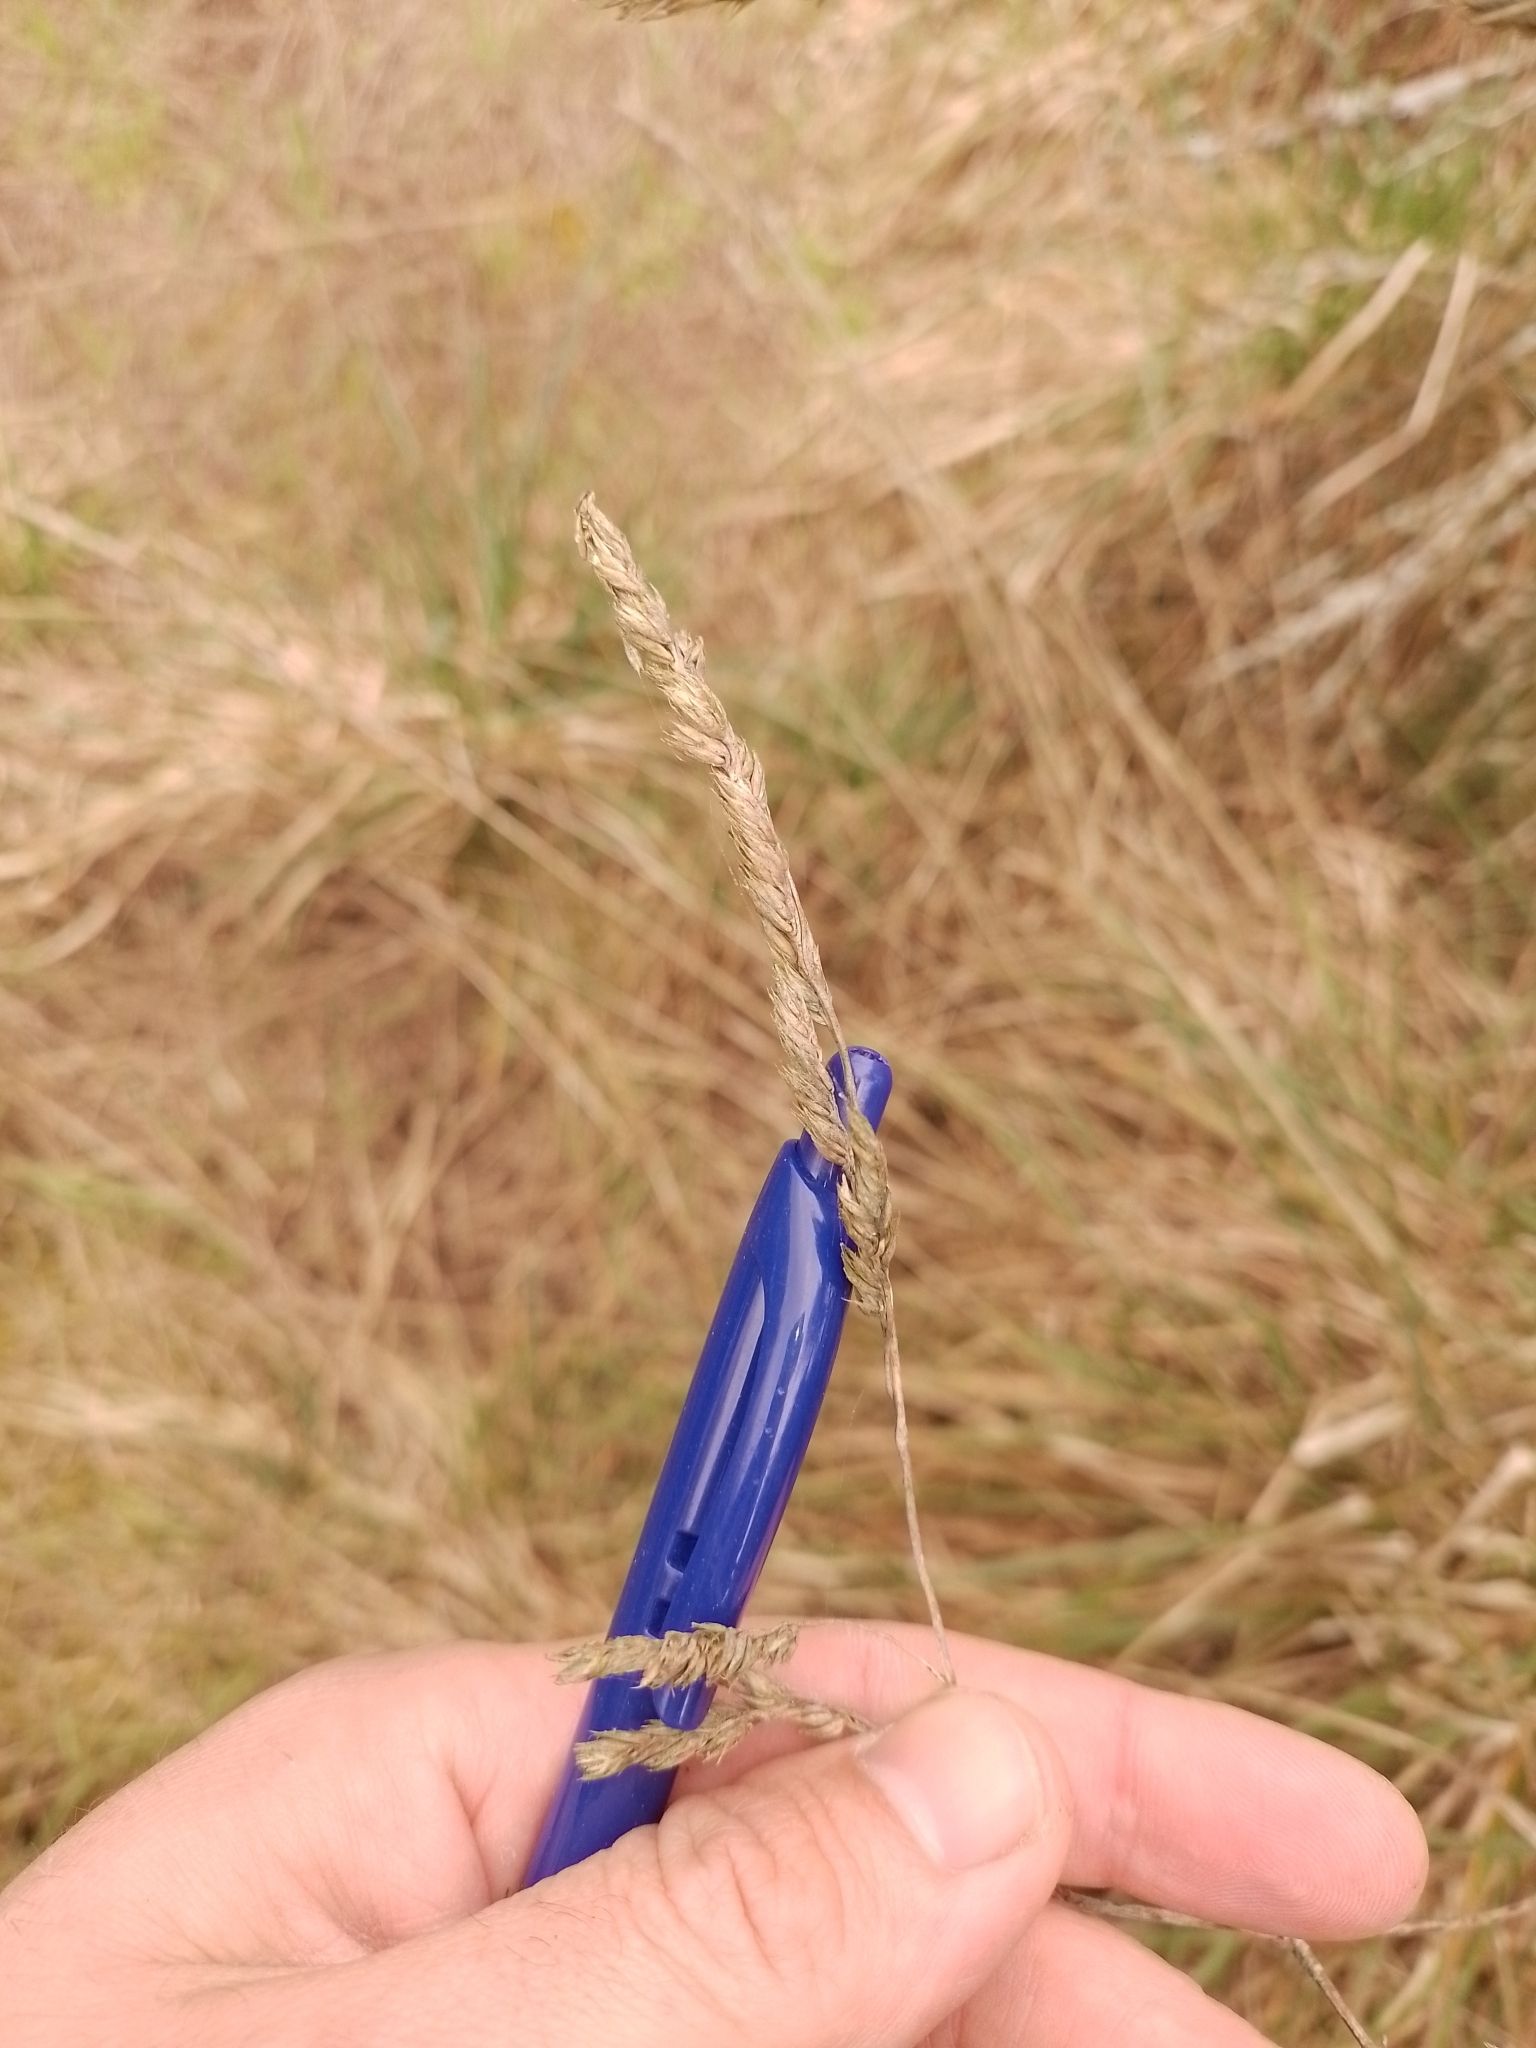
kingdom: Plantae
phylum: Tracheophyta
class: Liliopsida
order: Poales
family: Poaceae
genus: Dactylis
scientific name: Dactylis glomerata
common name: Orchardgrass
